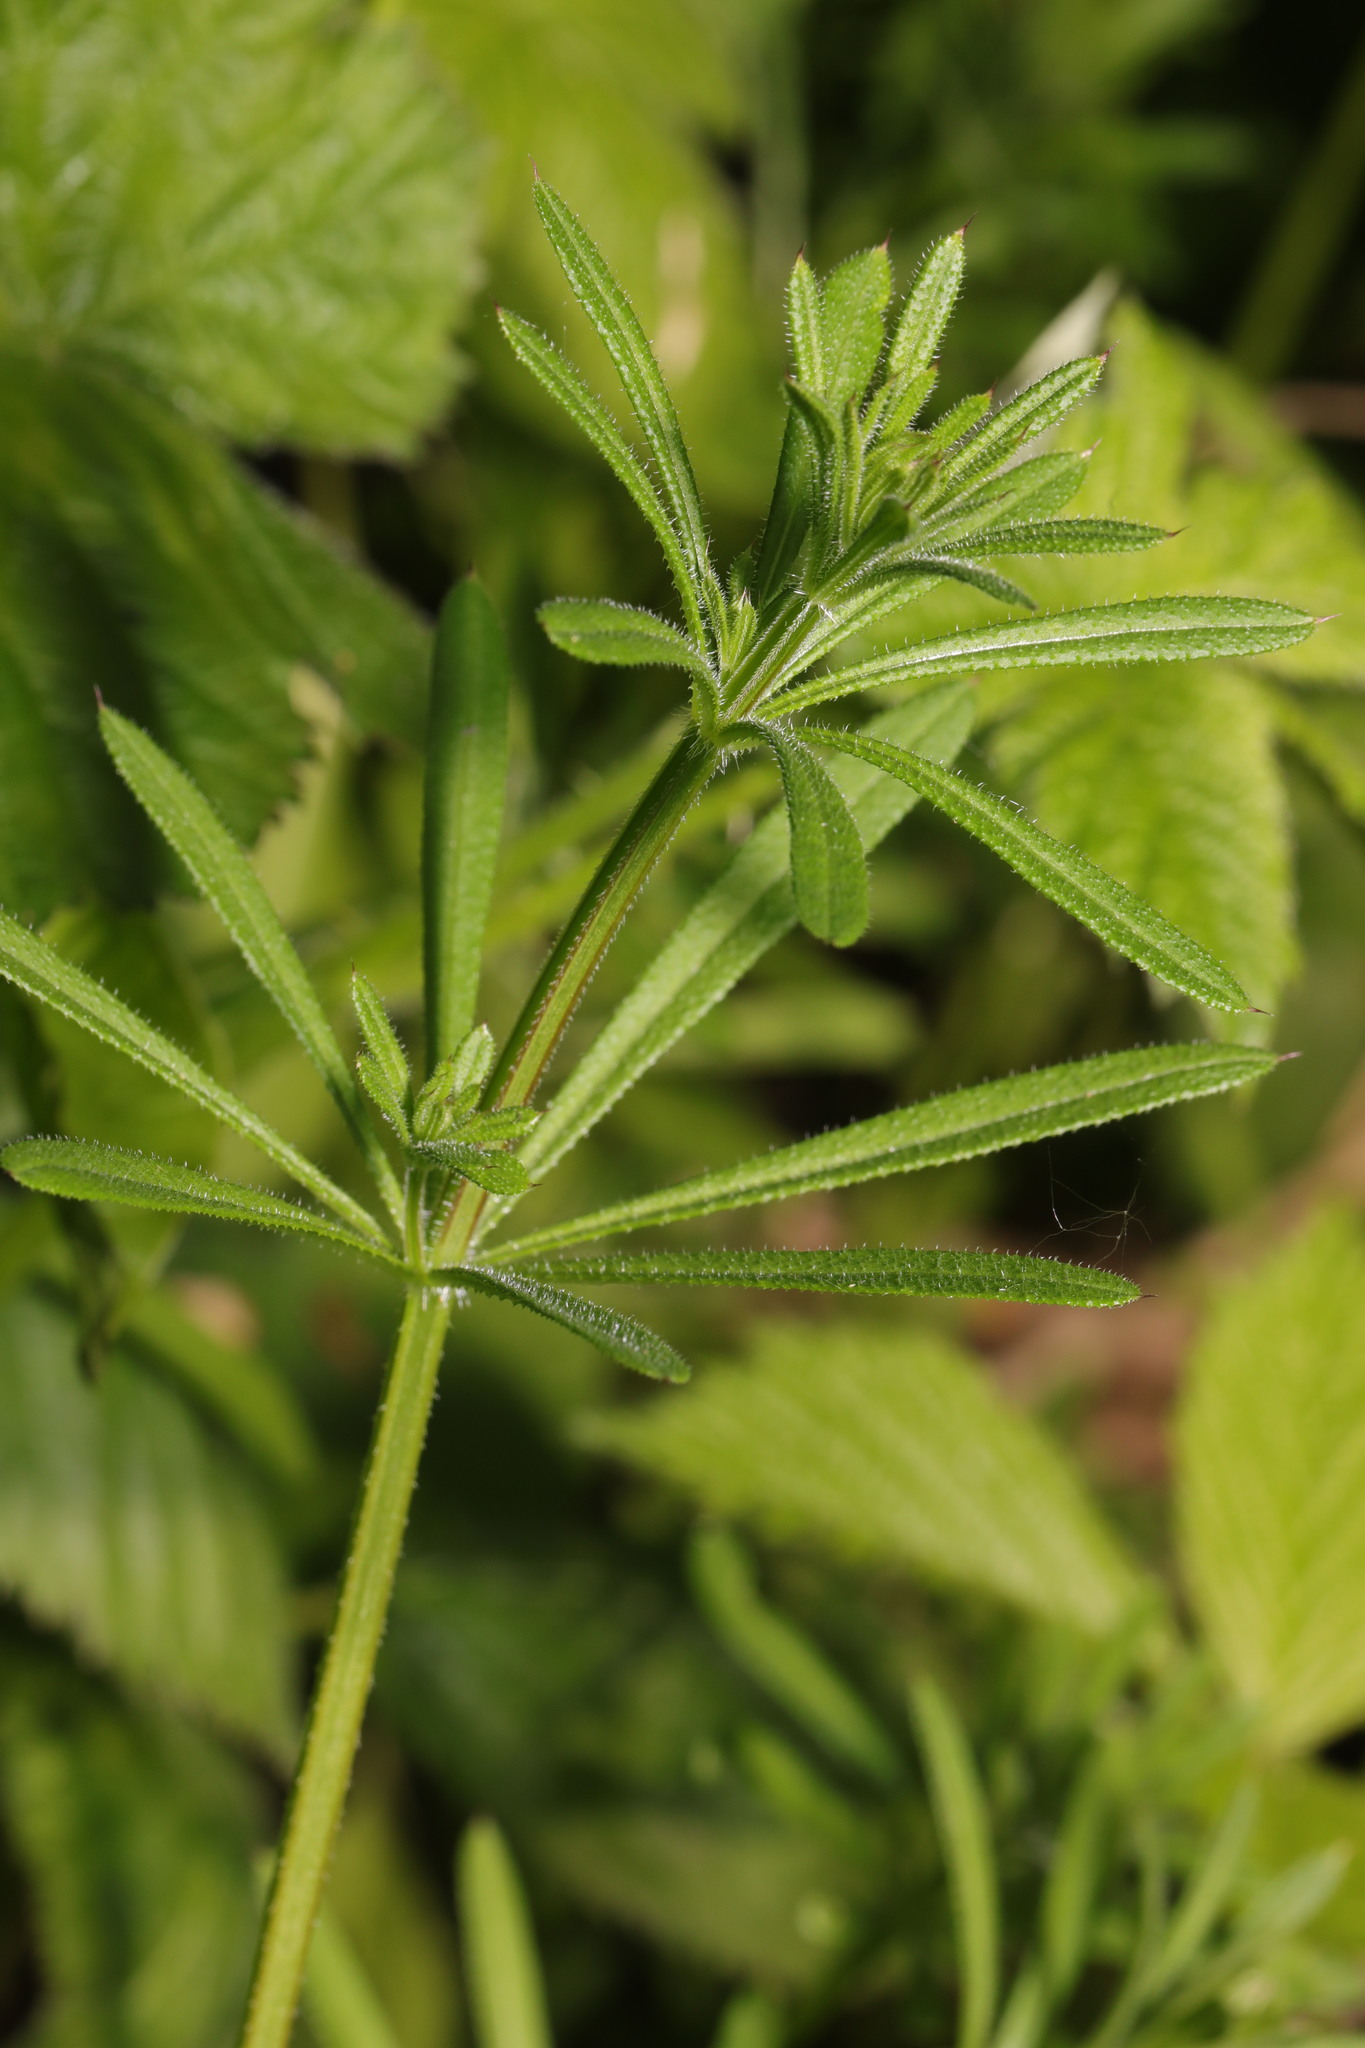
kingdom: Plantae
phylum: Tracheophyta
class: Magnoliopsida
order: Gentianales
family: Rubiaceae
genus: Galium
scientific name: Galium aparine
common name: Cleavers
